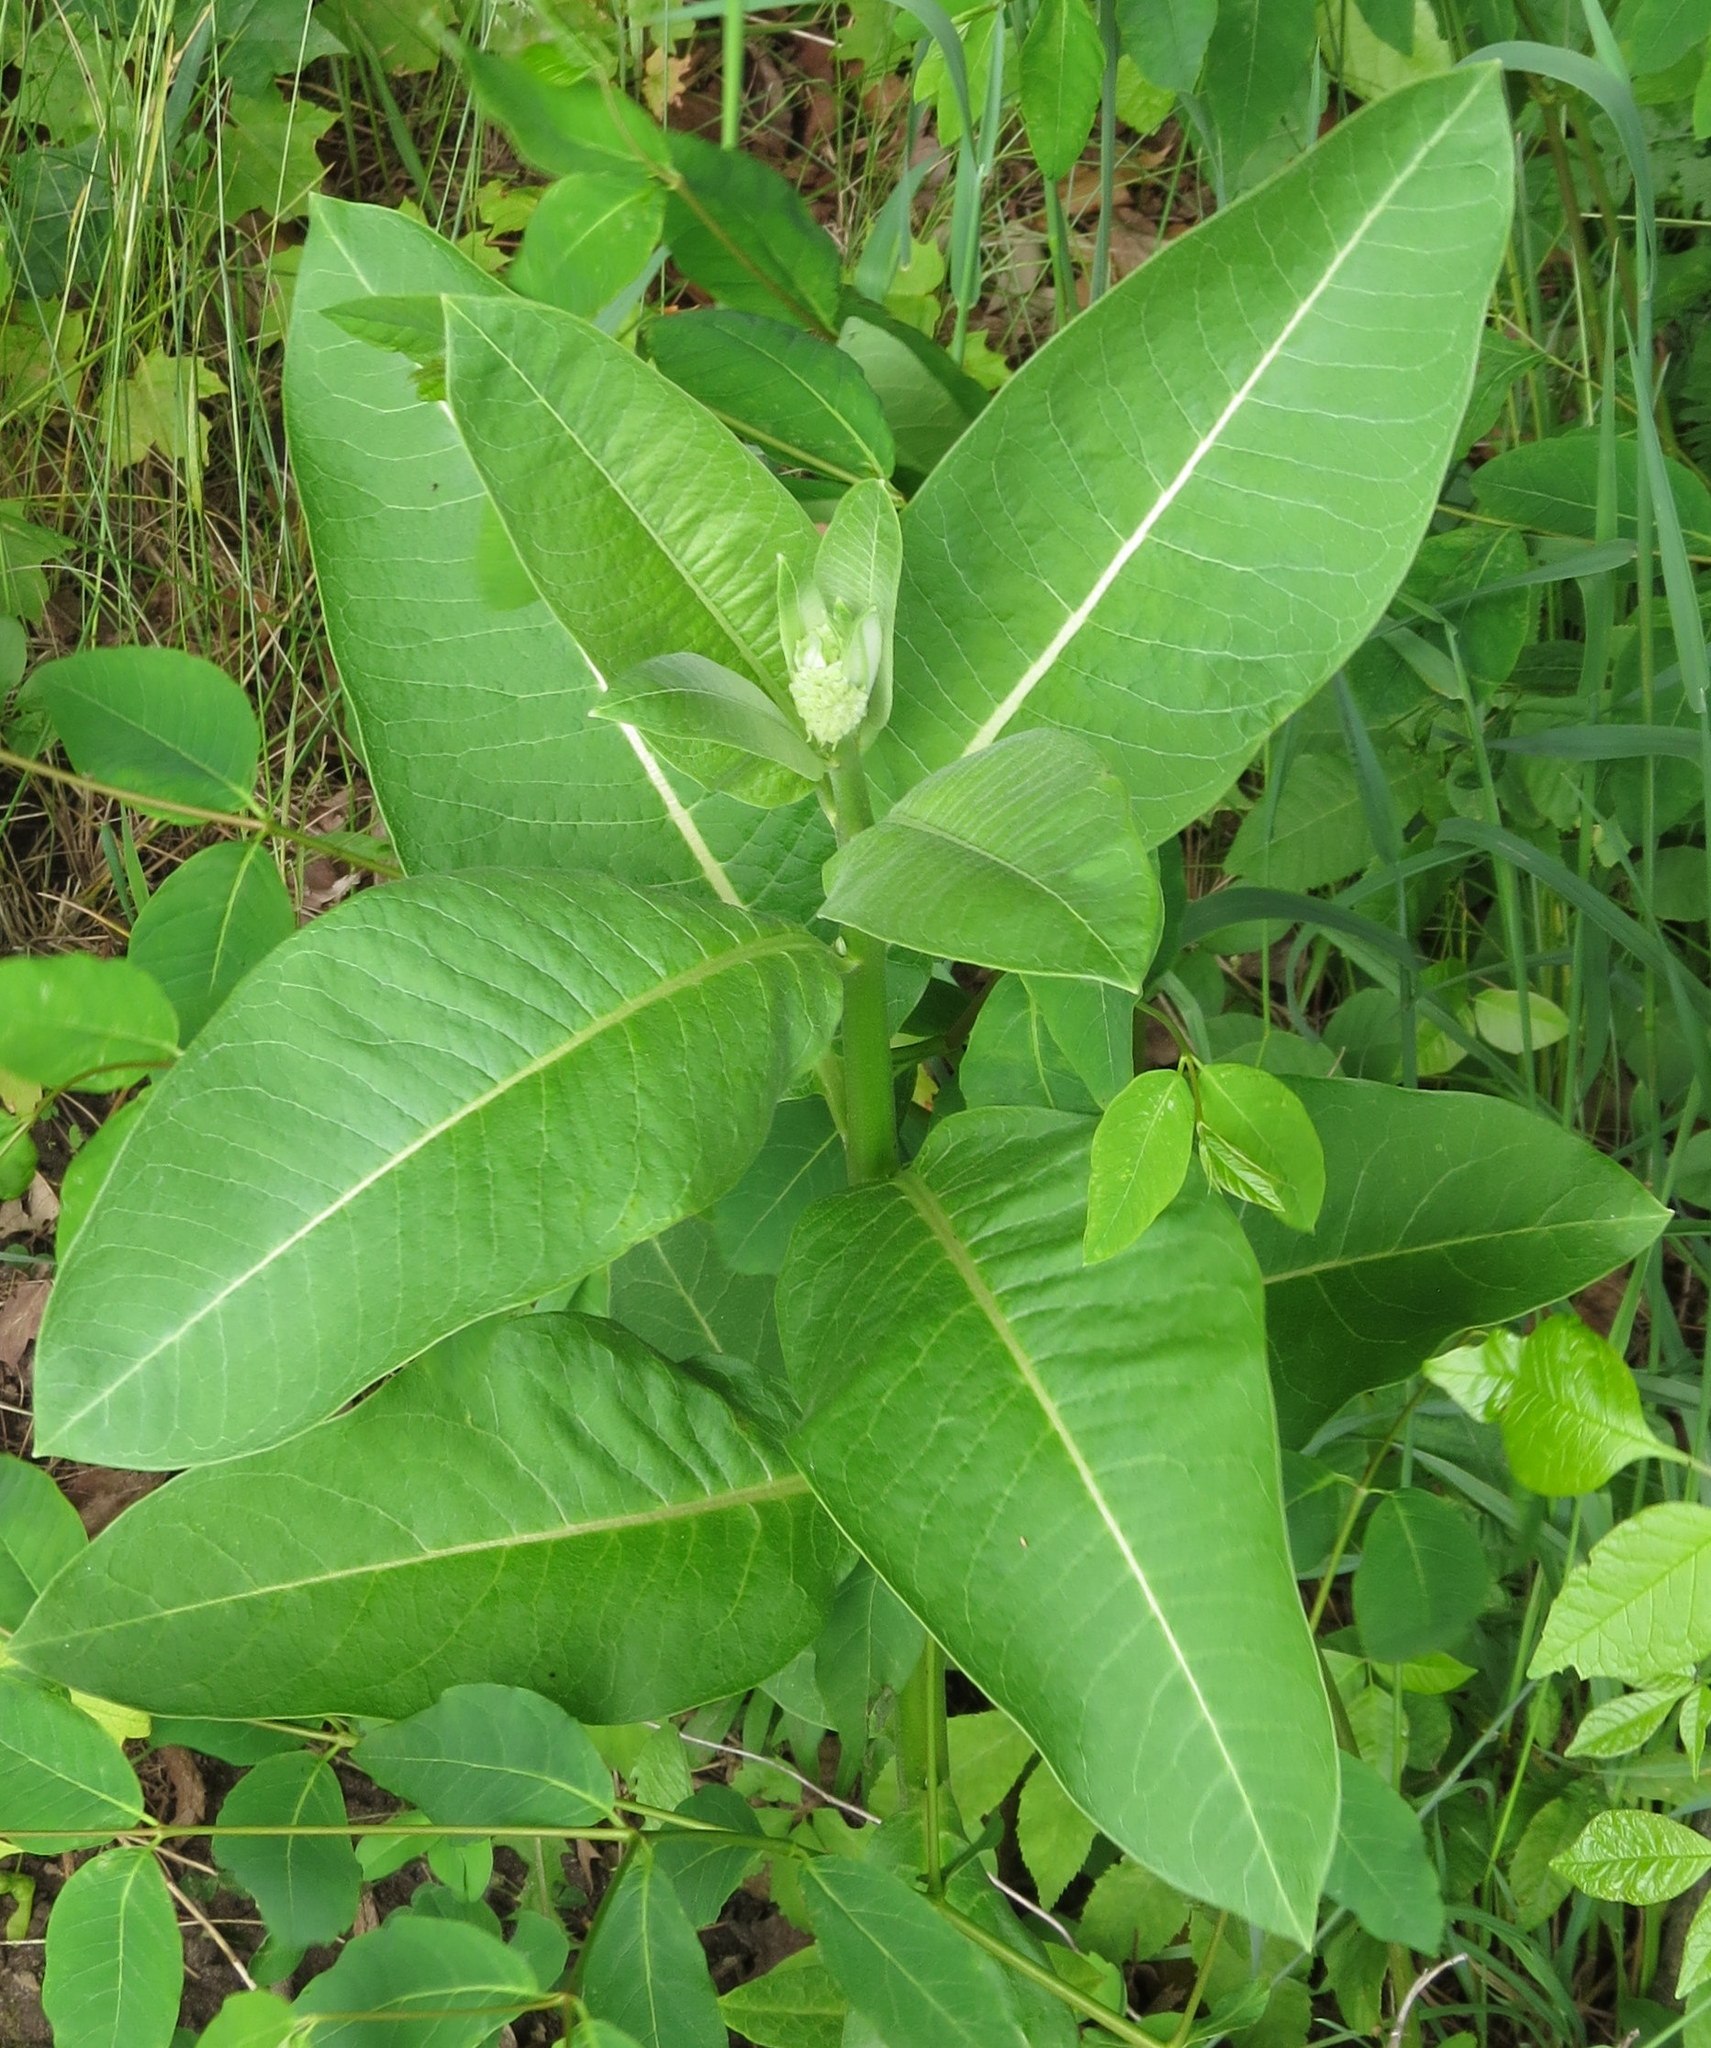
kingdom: Plantae
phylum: Tracheophyta
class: Magnoliopsida
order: Gentianales
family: Apocynaceae
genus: Asclepias
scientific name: Asclepias syriaca
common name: Common milkweed
